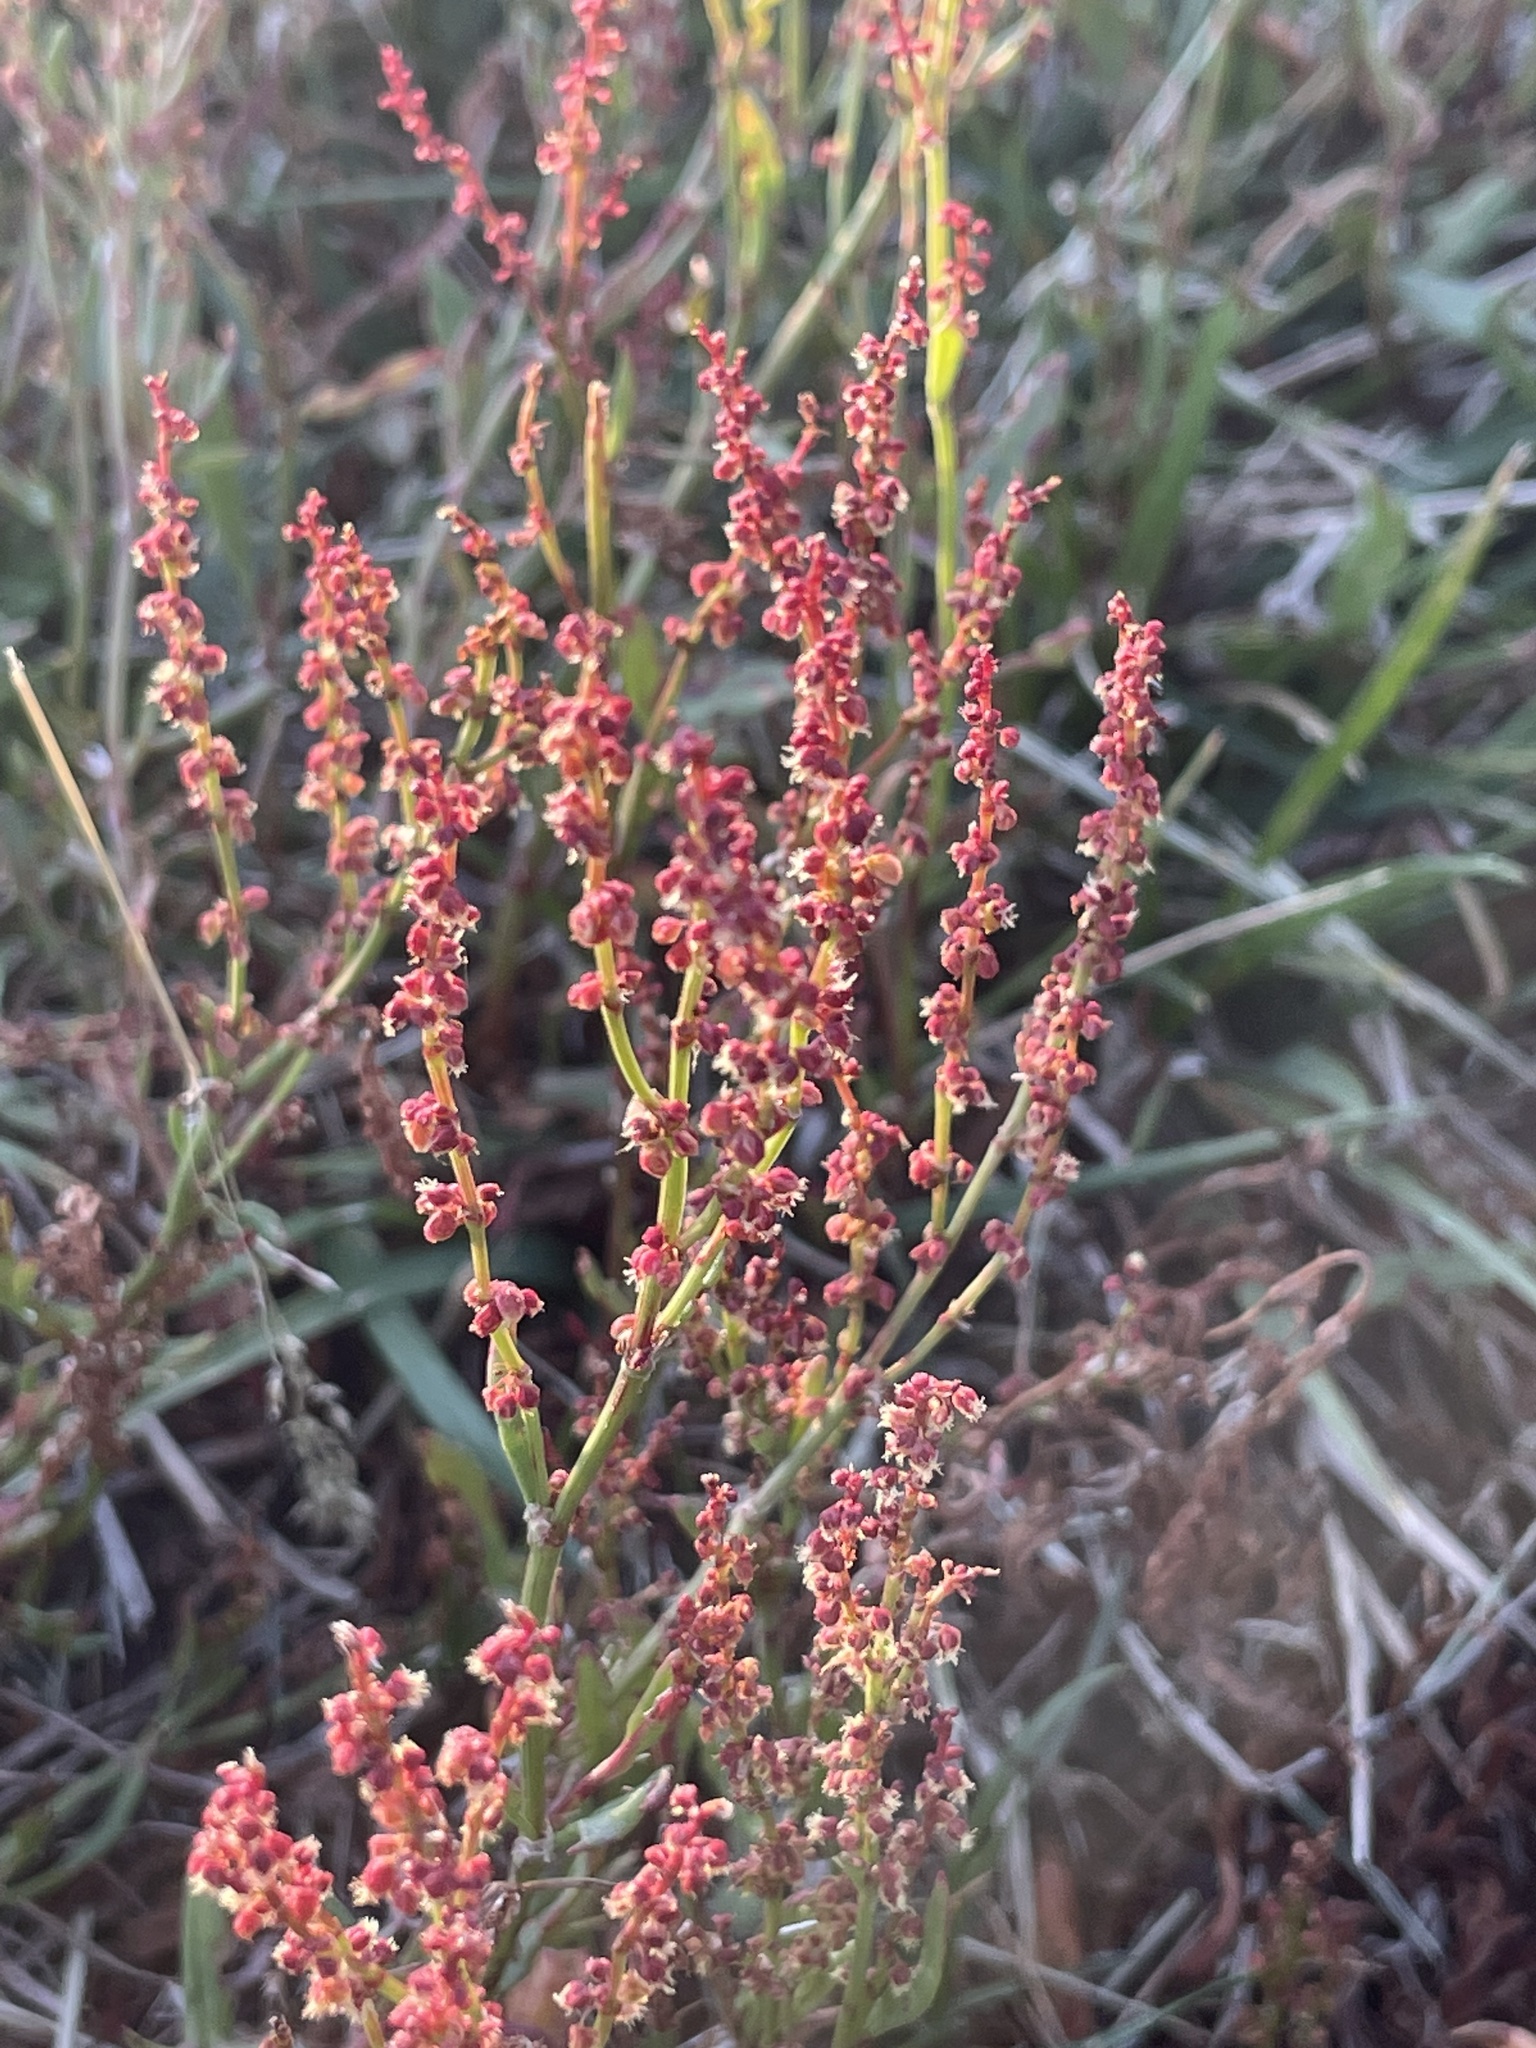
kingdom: Plantae
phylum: Tracheophyta
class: Magnoliopsida
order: Caryophyllales
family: Polygonaceae
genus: Rumex
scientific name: Rumex acetosella
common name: Common sheep sorrel
